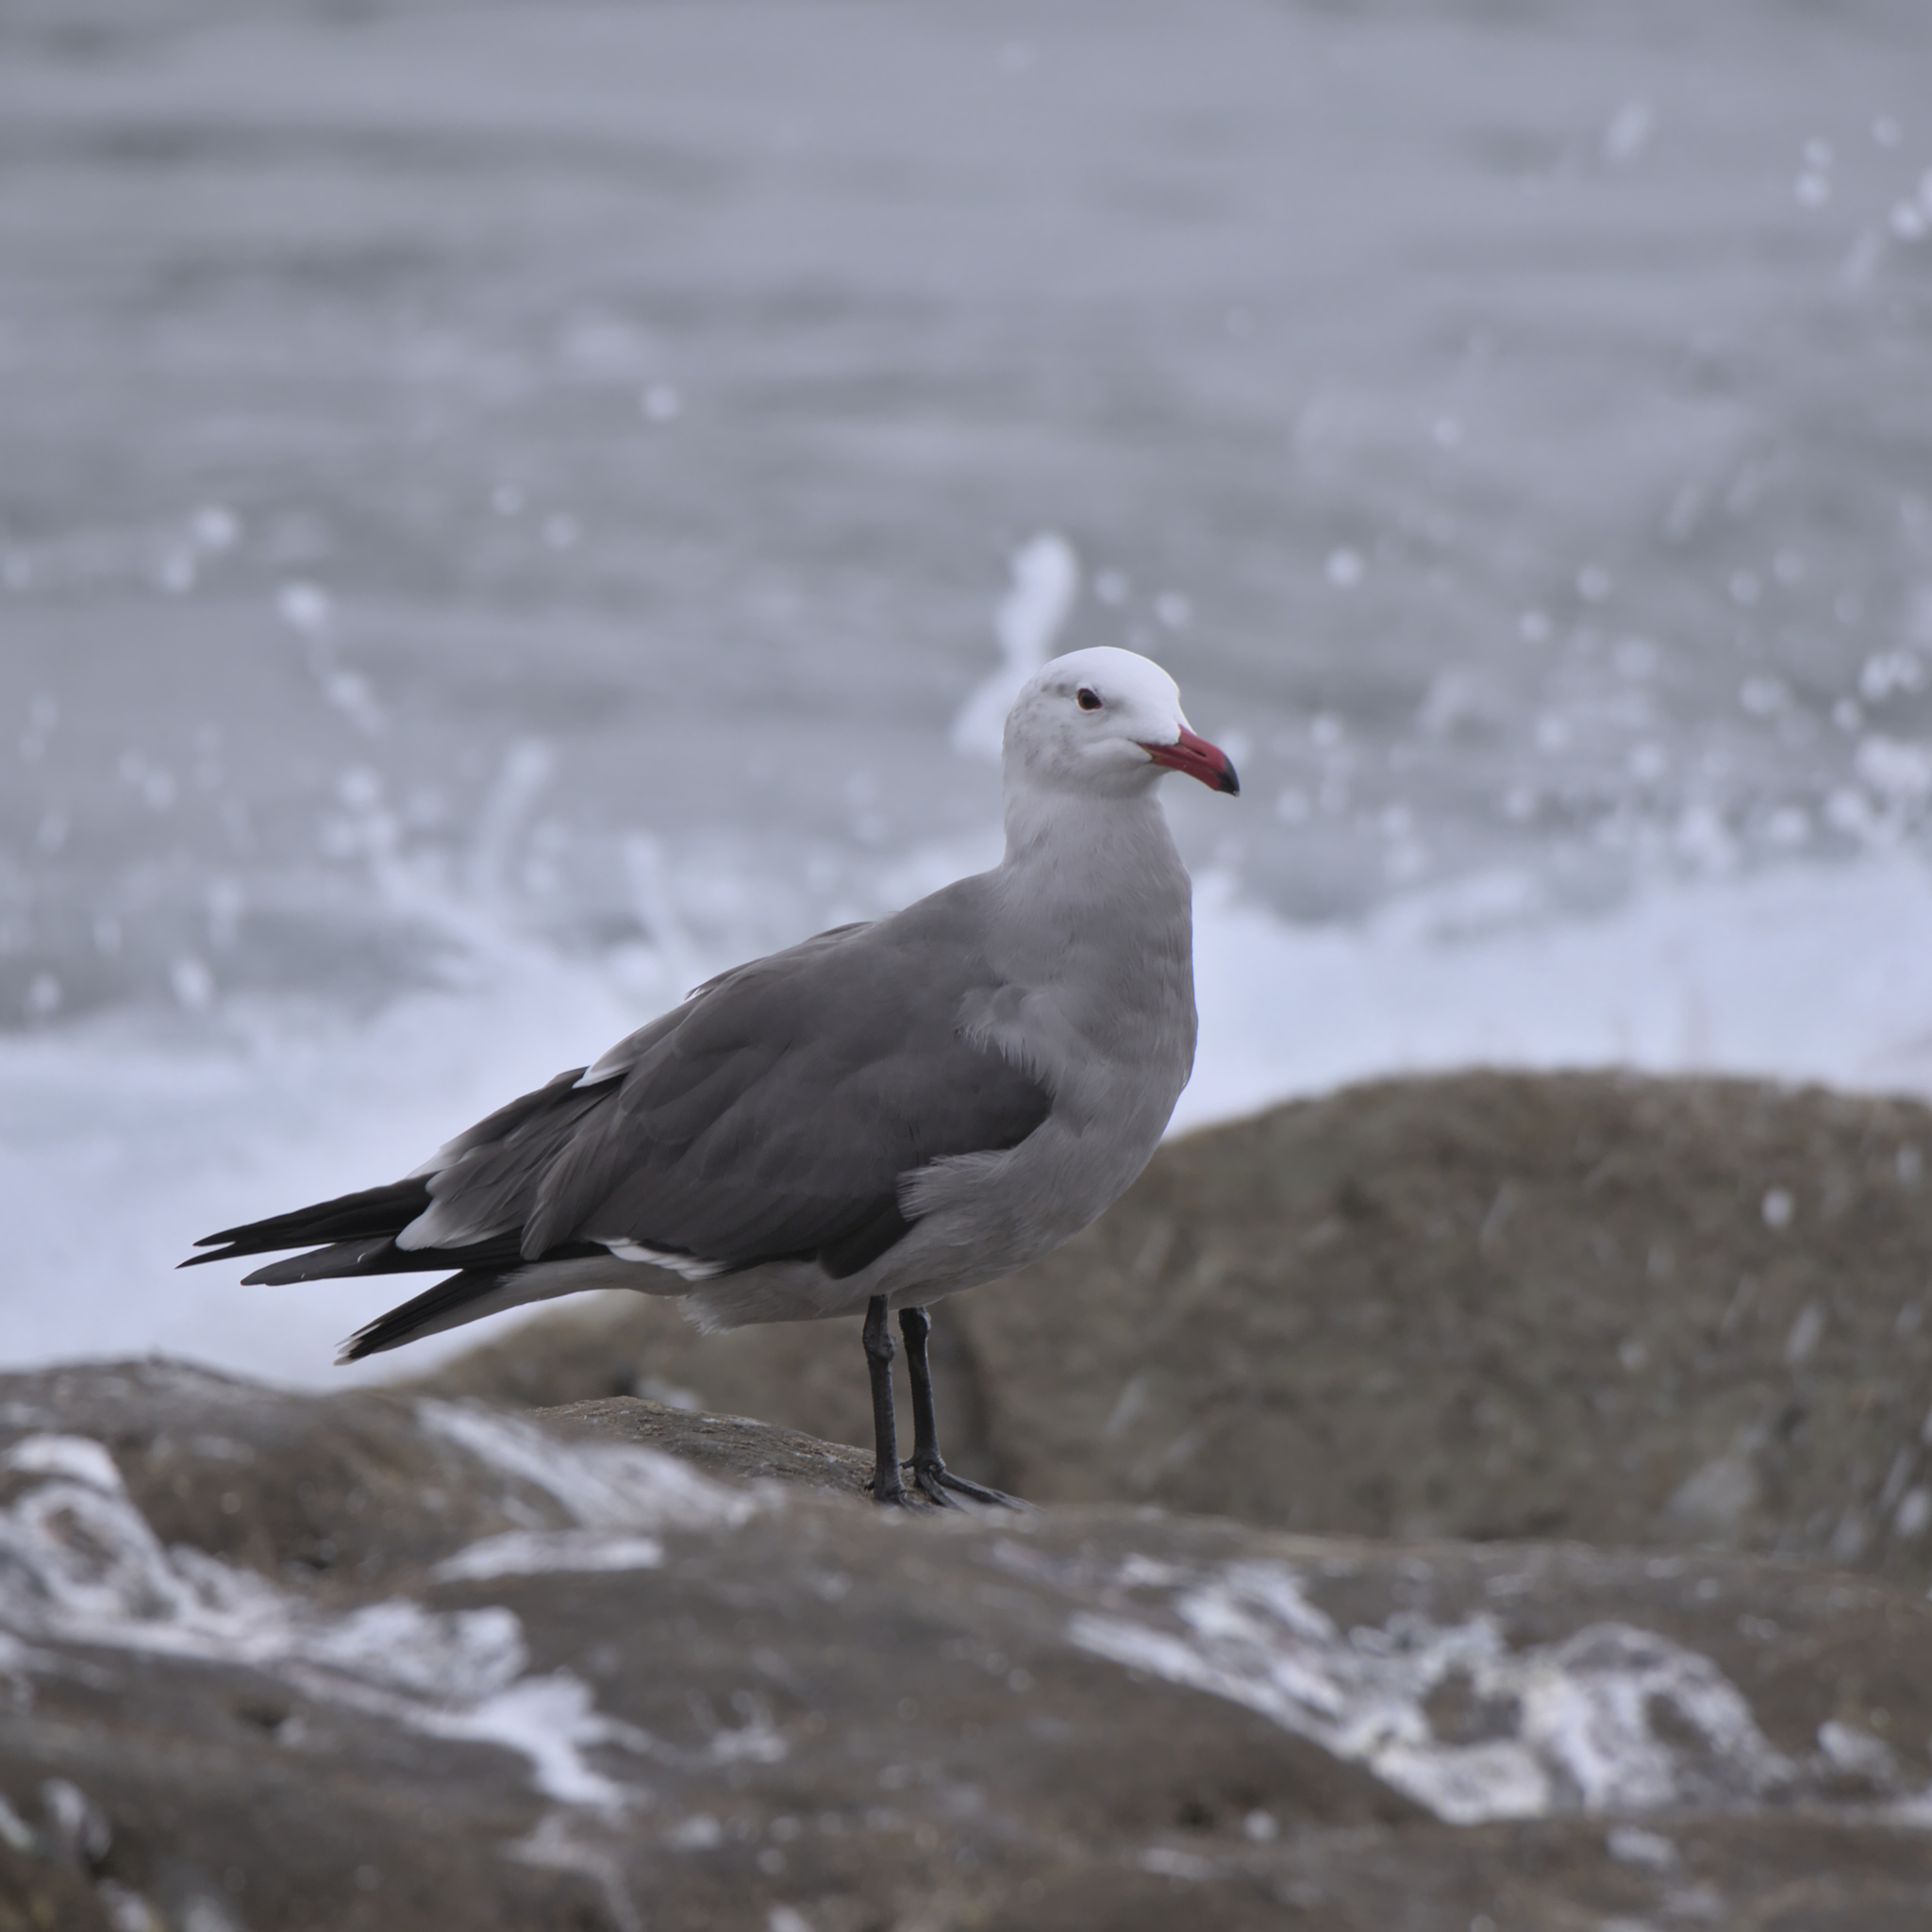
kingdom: Animalia
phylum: Chordata
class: Aves
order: Charadriiformes
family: Laridae
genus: Larus
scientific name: Larus heermanni
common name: Heermann's gull
